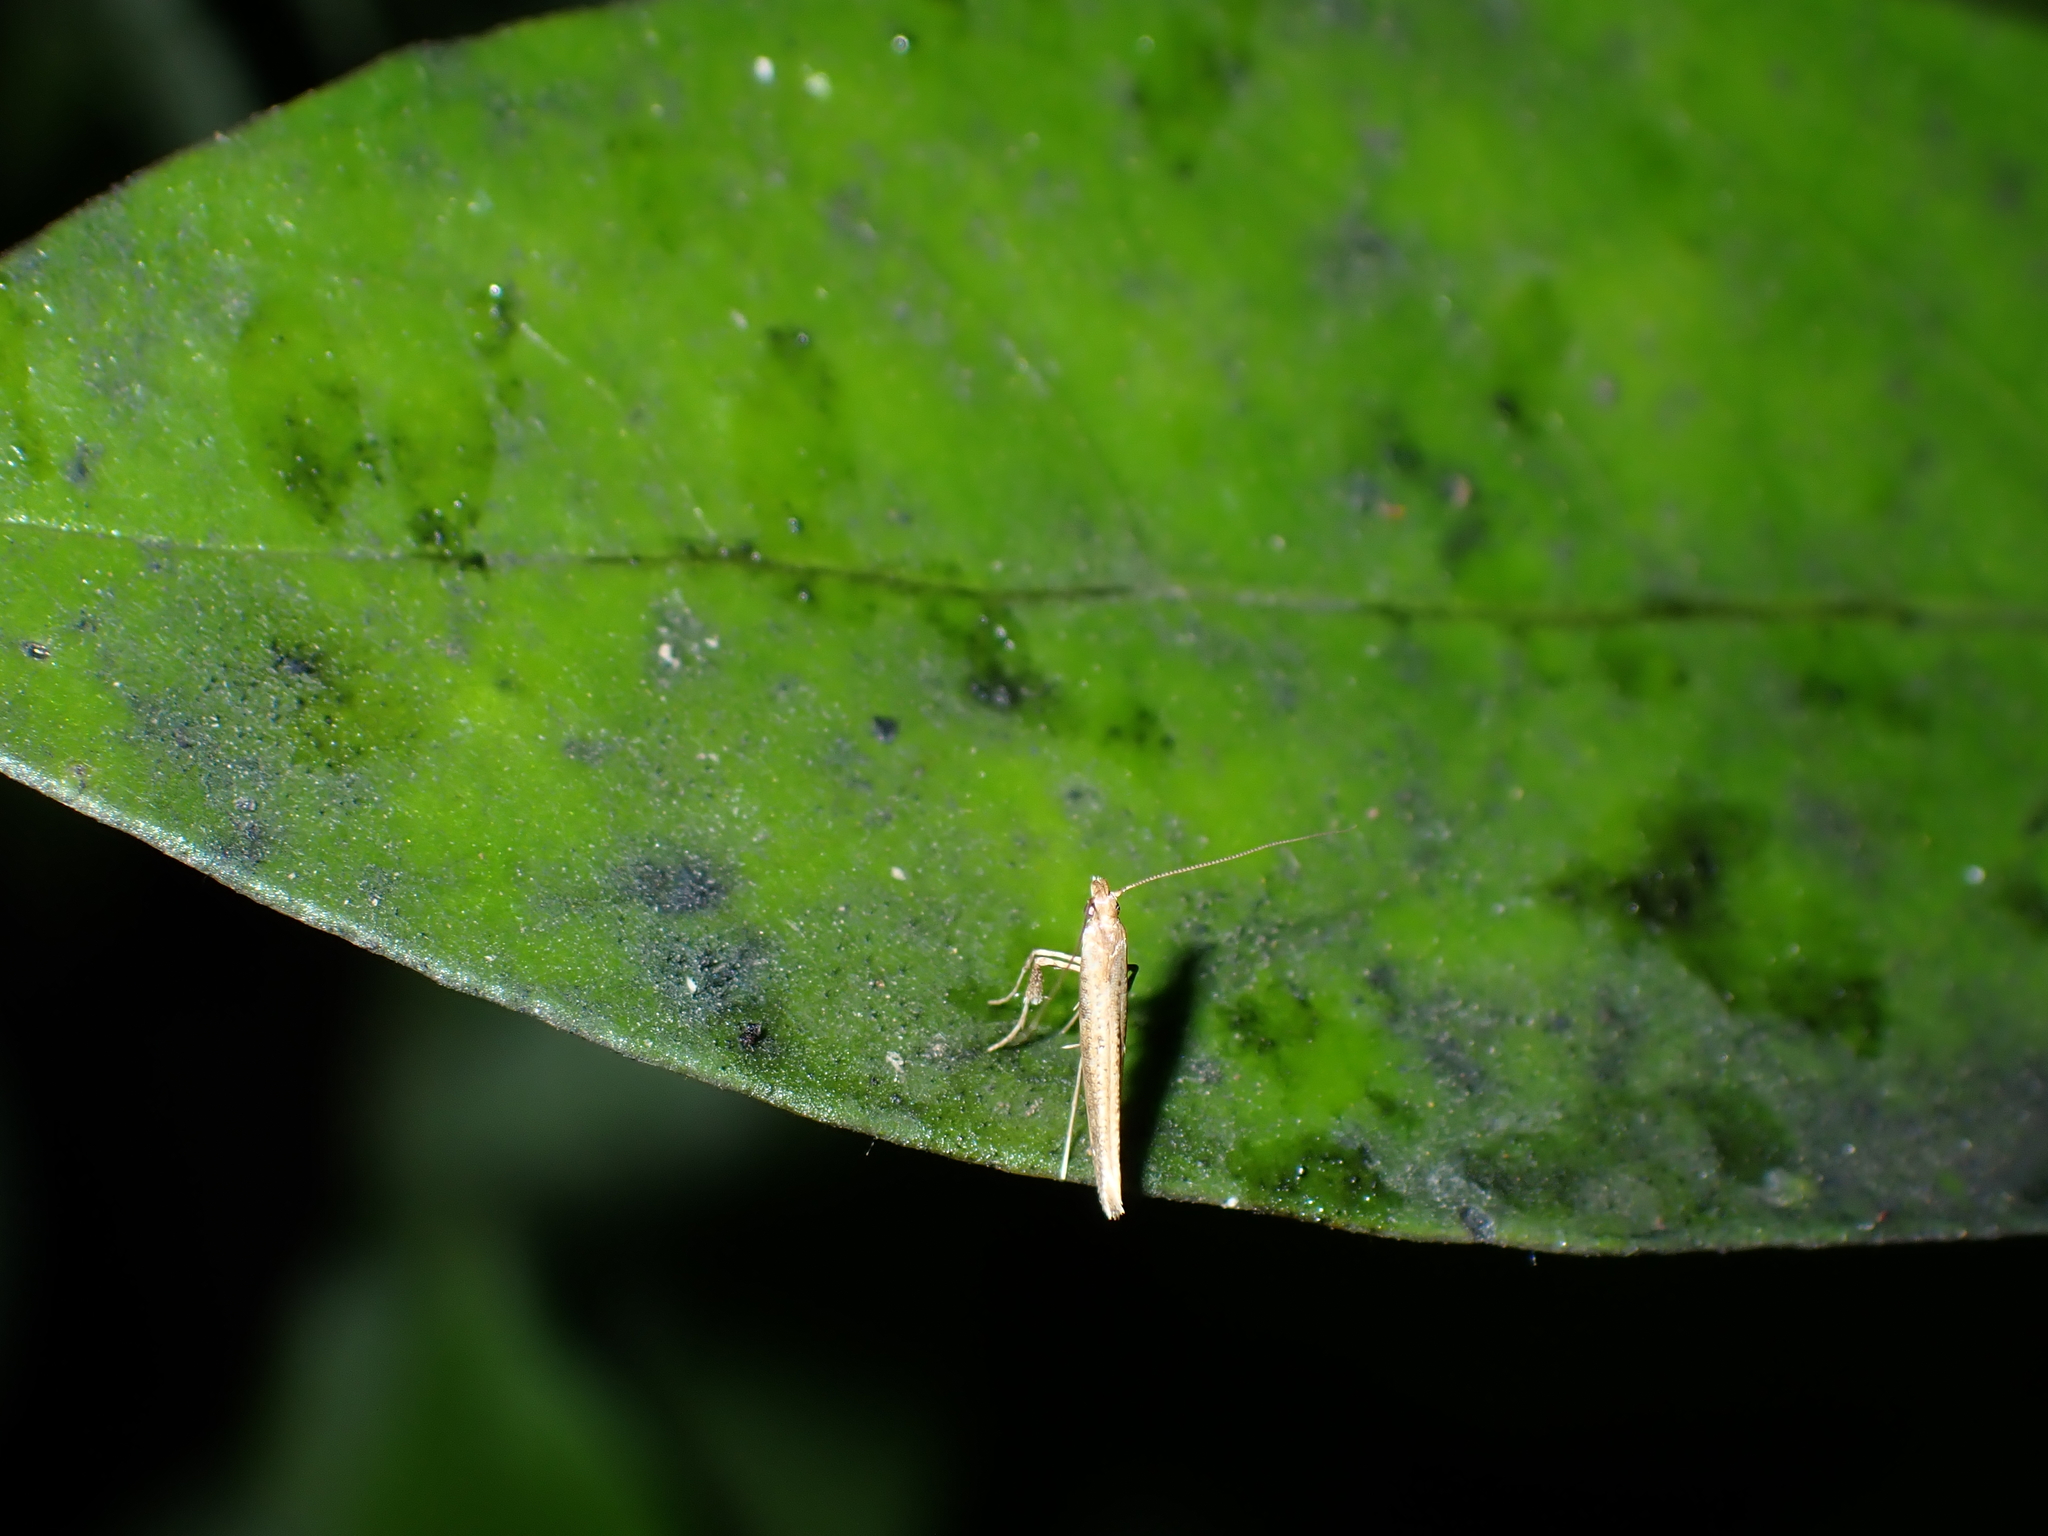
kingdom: Animalia
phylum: Arthropoda
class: Insecta
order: Lepidoptera
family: Gracillariidae
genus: Caloptilia
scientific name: Caloptilia linearis
